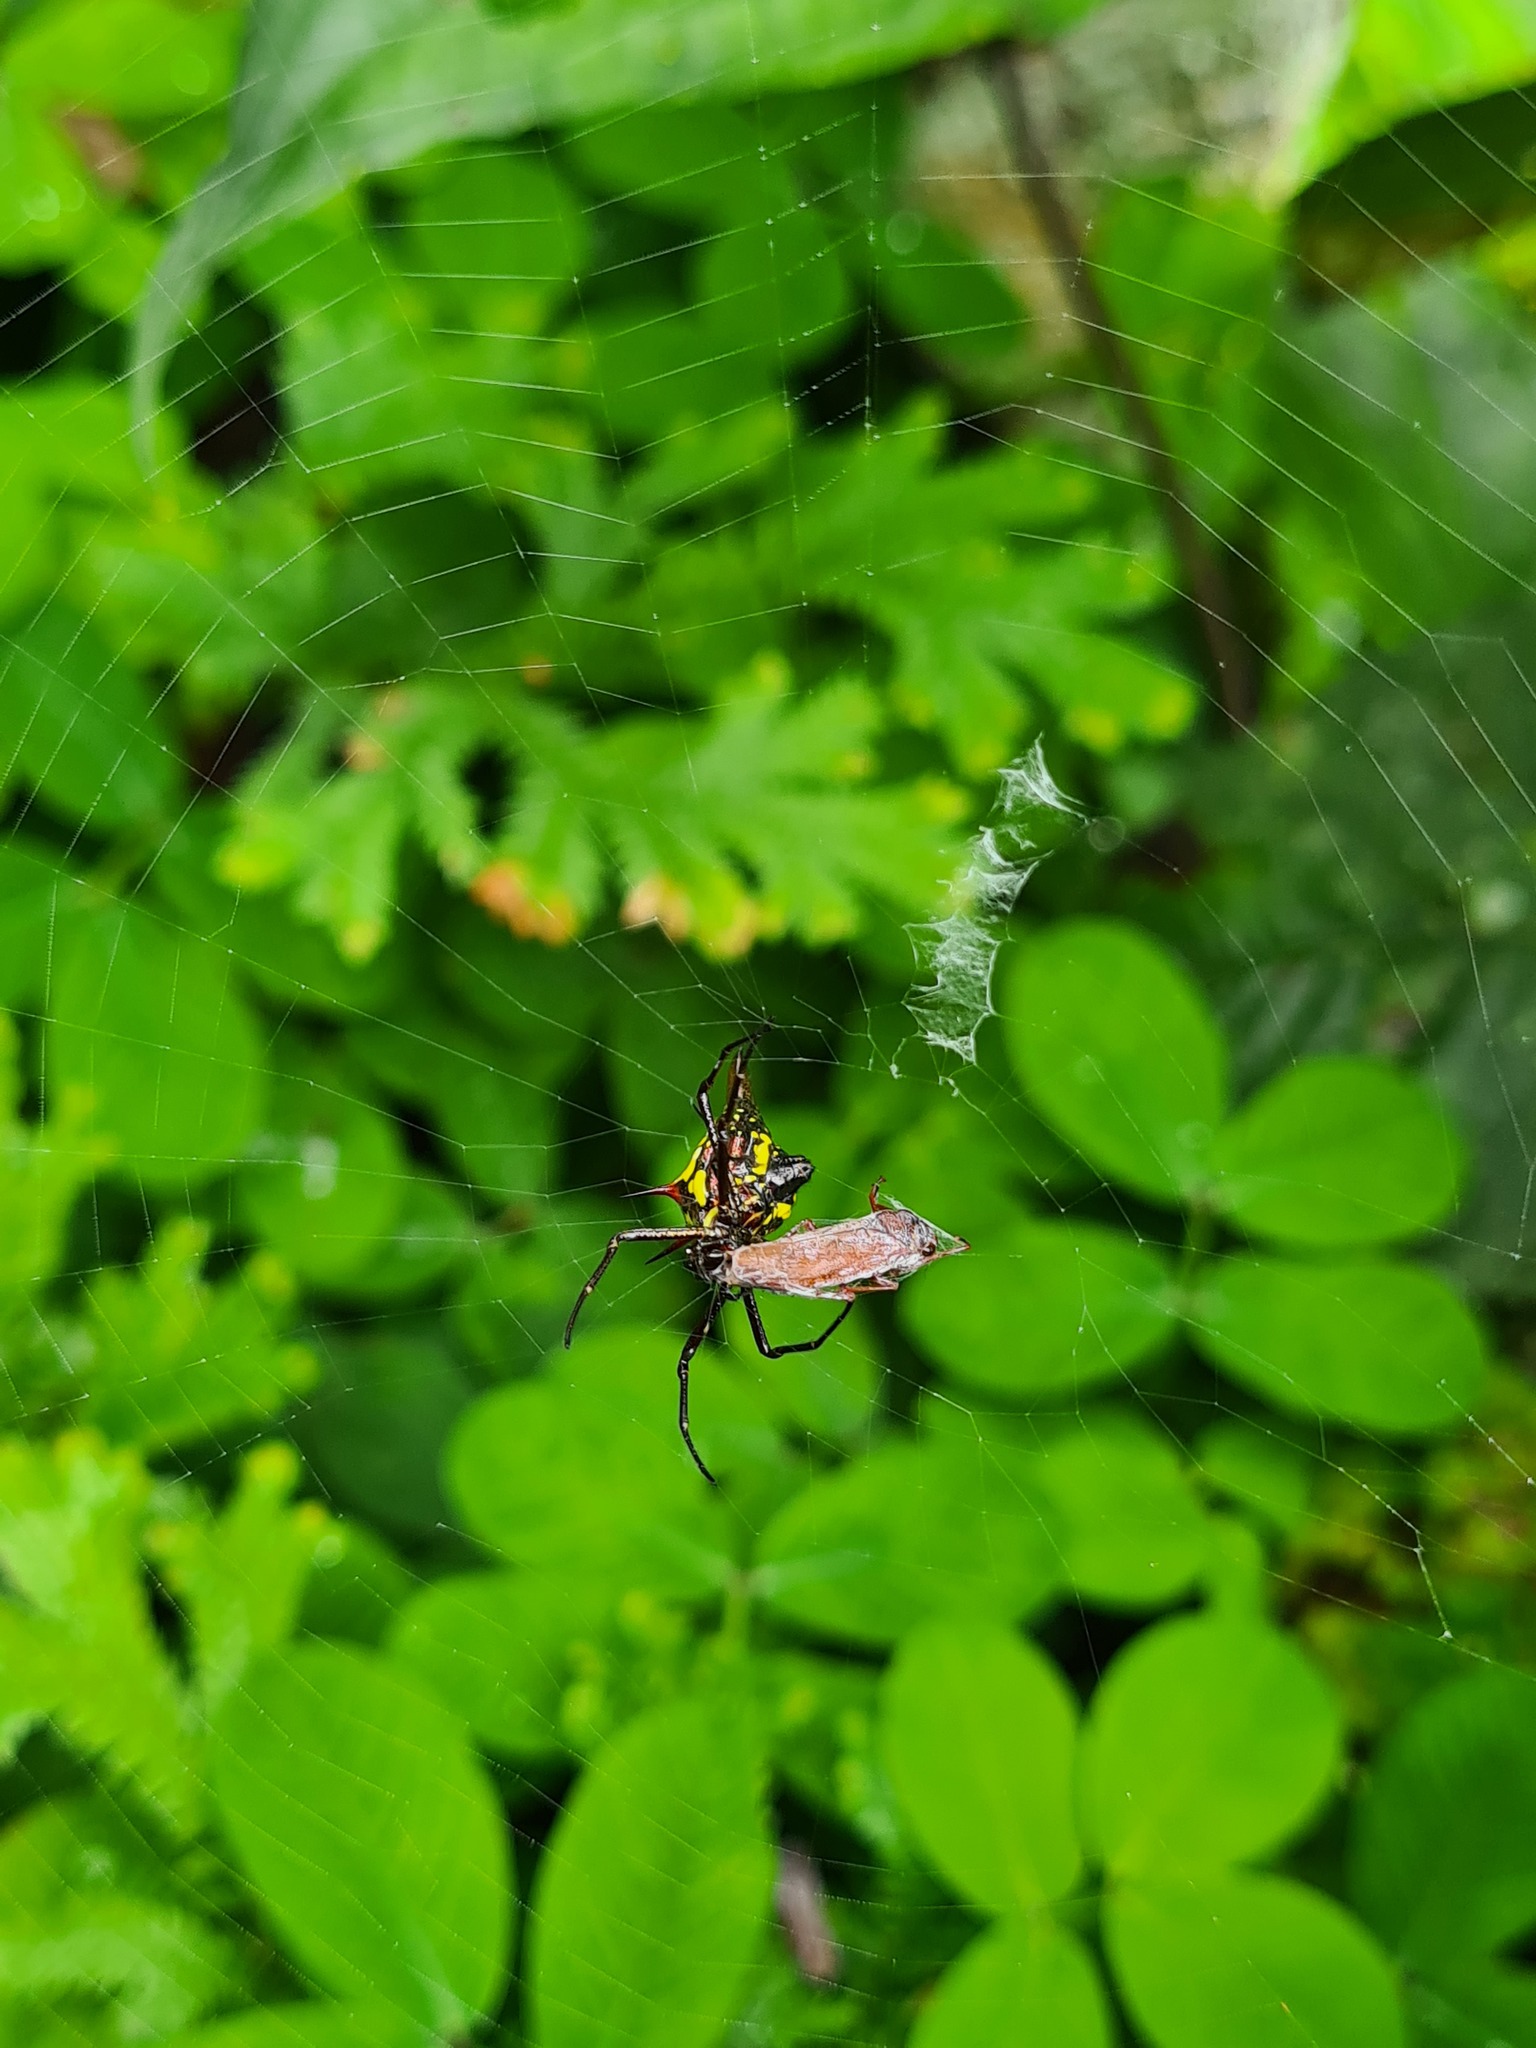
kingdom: Animalia
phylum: Arthropoda
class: Arachnida
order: Araneae
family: Araneidae
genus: Micrathena
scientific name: Micrathena pichincha
